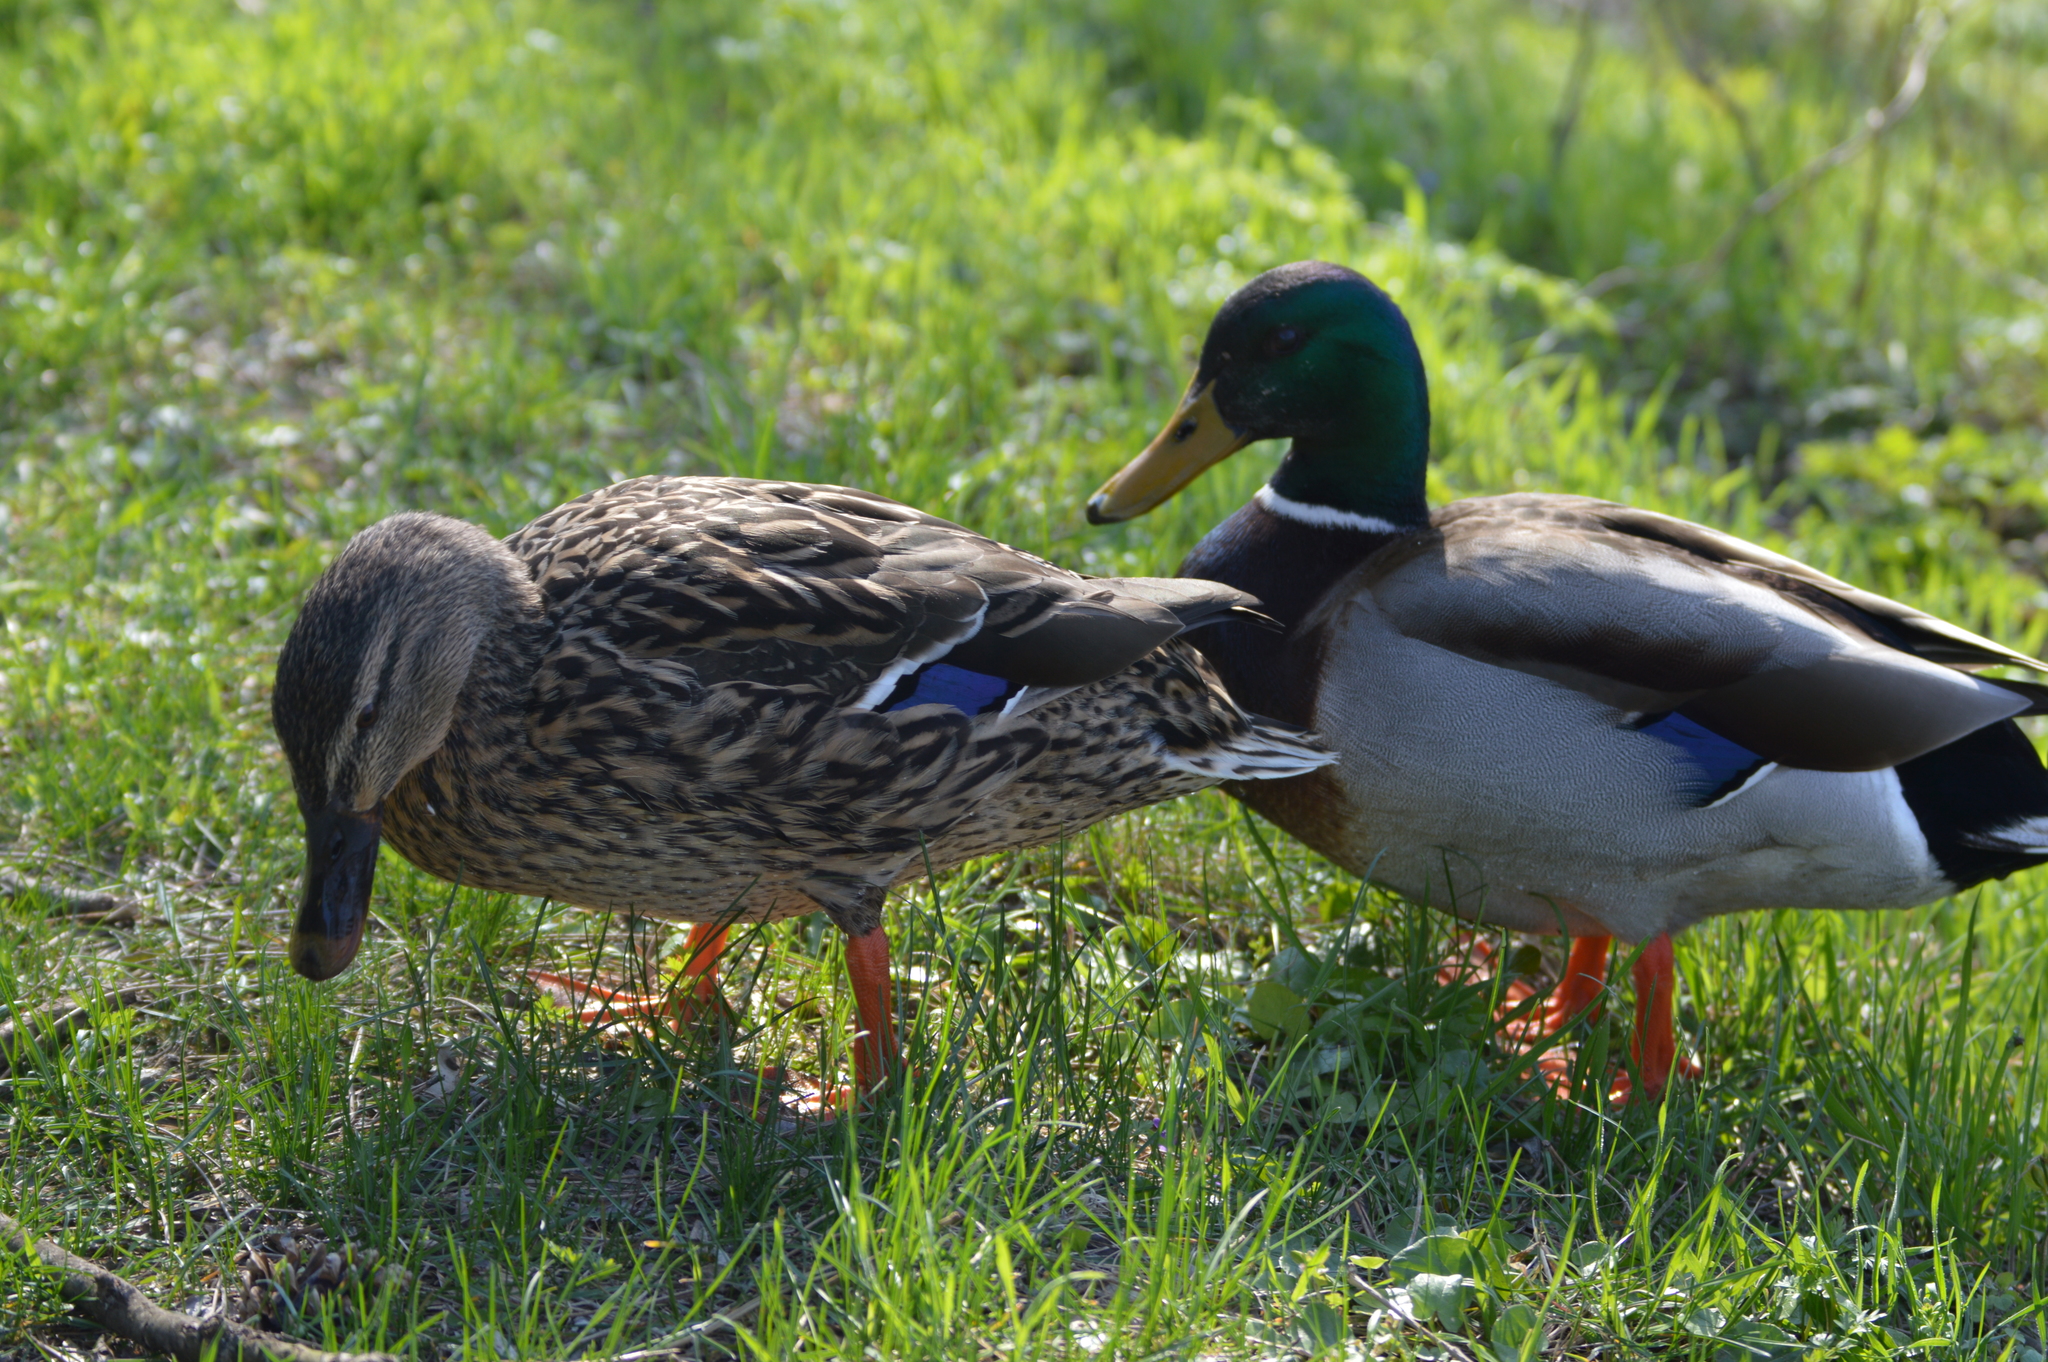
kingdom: Animalia
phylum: Chordata
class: Aves
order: Anseriformes
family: Anatidae
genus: Anas
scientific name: Anas platyrhynchos
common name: Mallard
